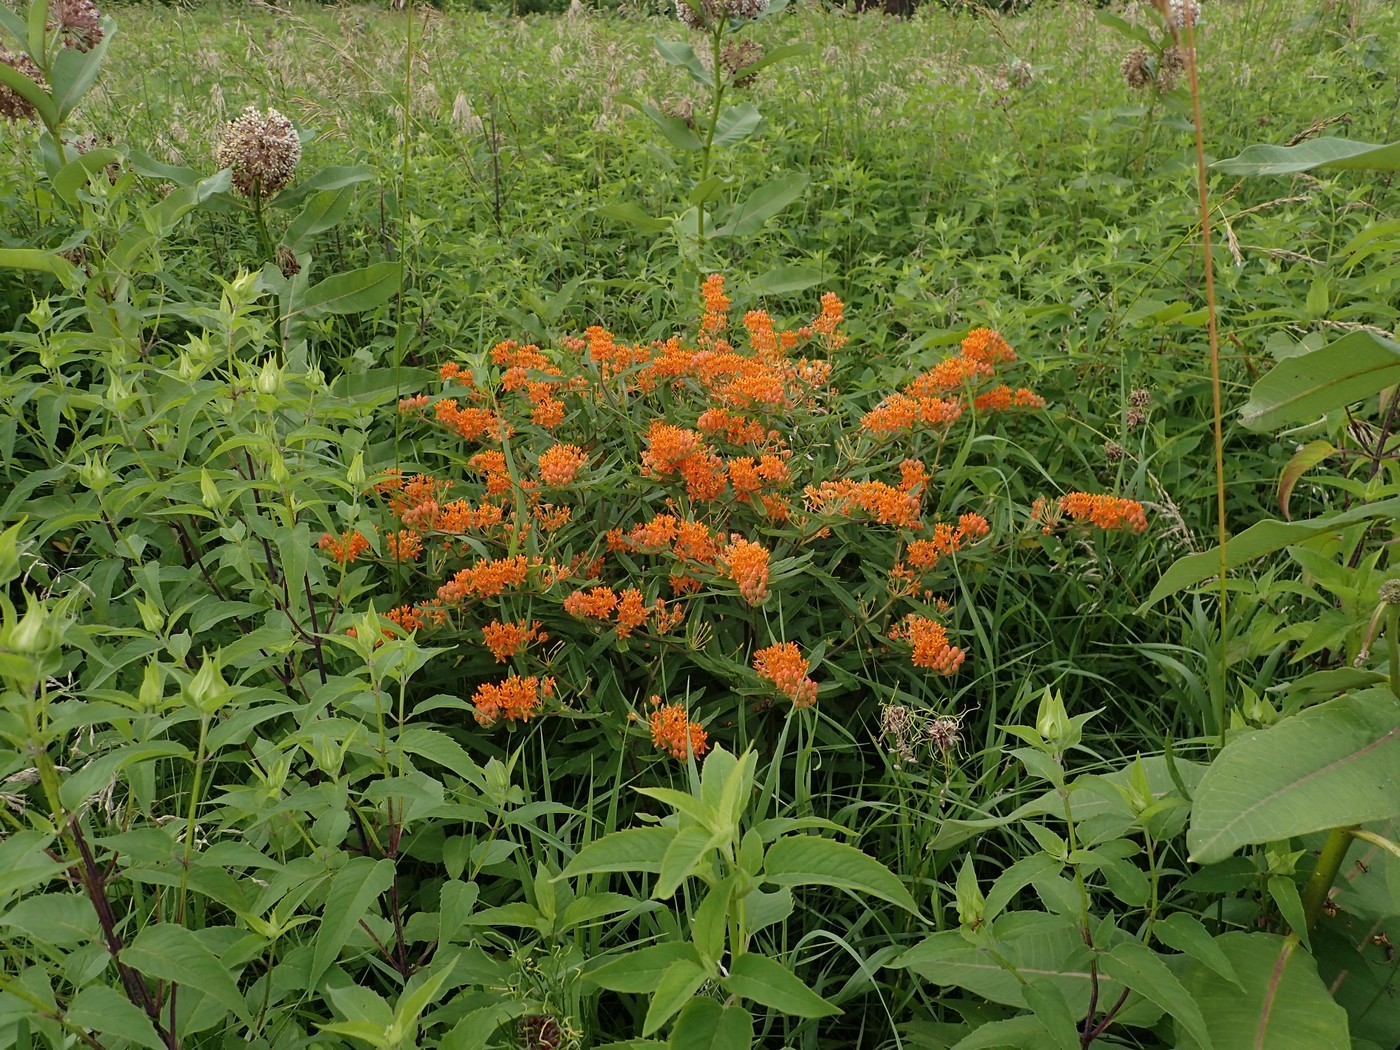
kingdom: Plantae
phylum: Tracheophyta
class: Magnoliopsida
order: Gentianales
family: Apocynaceae
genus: Asclepias
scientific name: Asclepias tuberosa
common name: Butterfly milkweed
